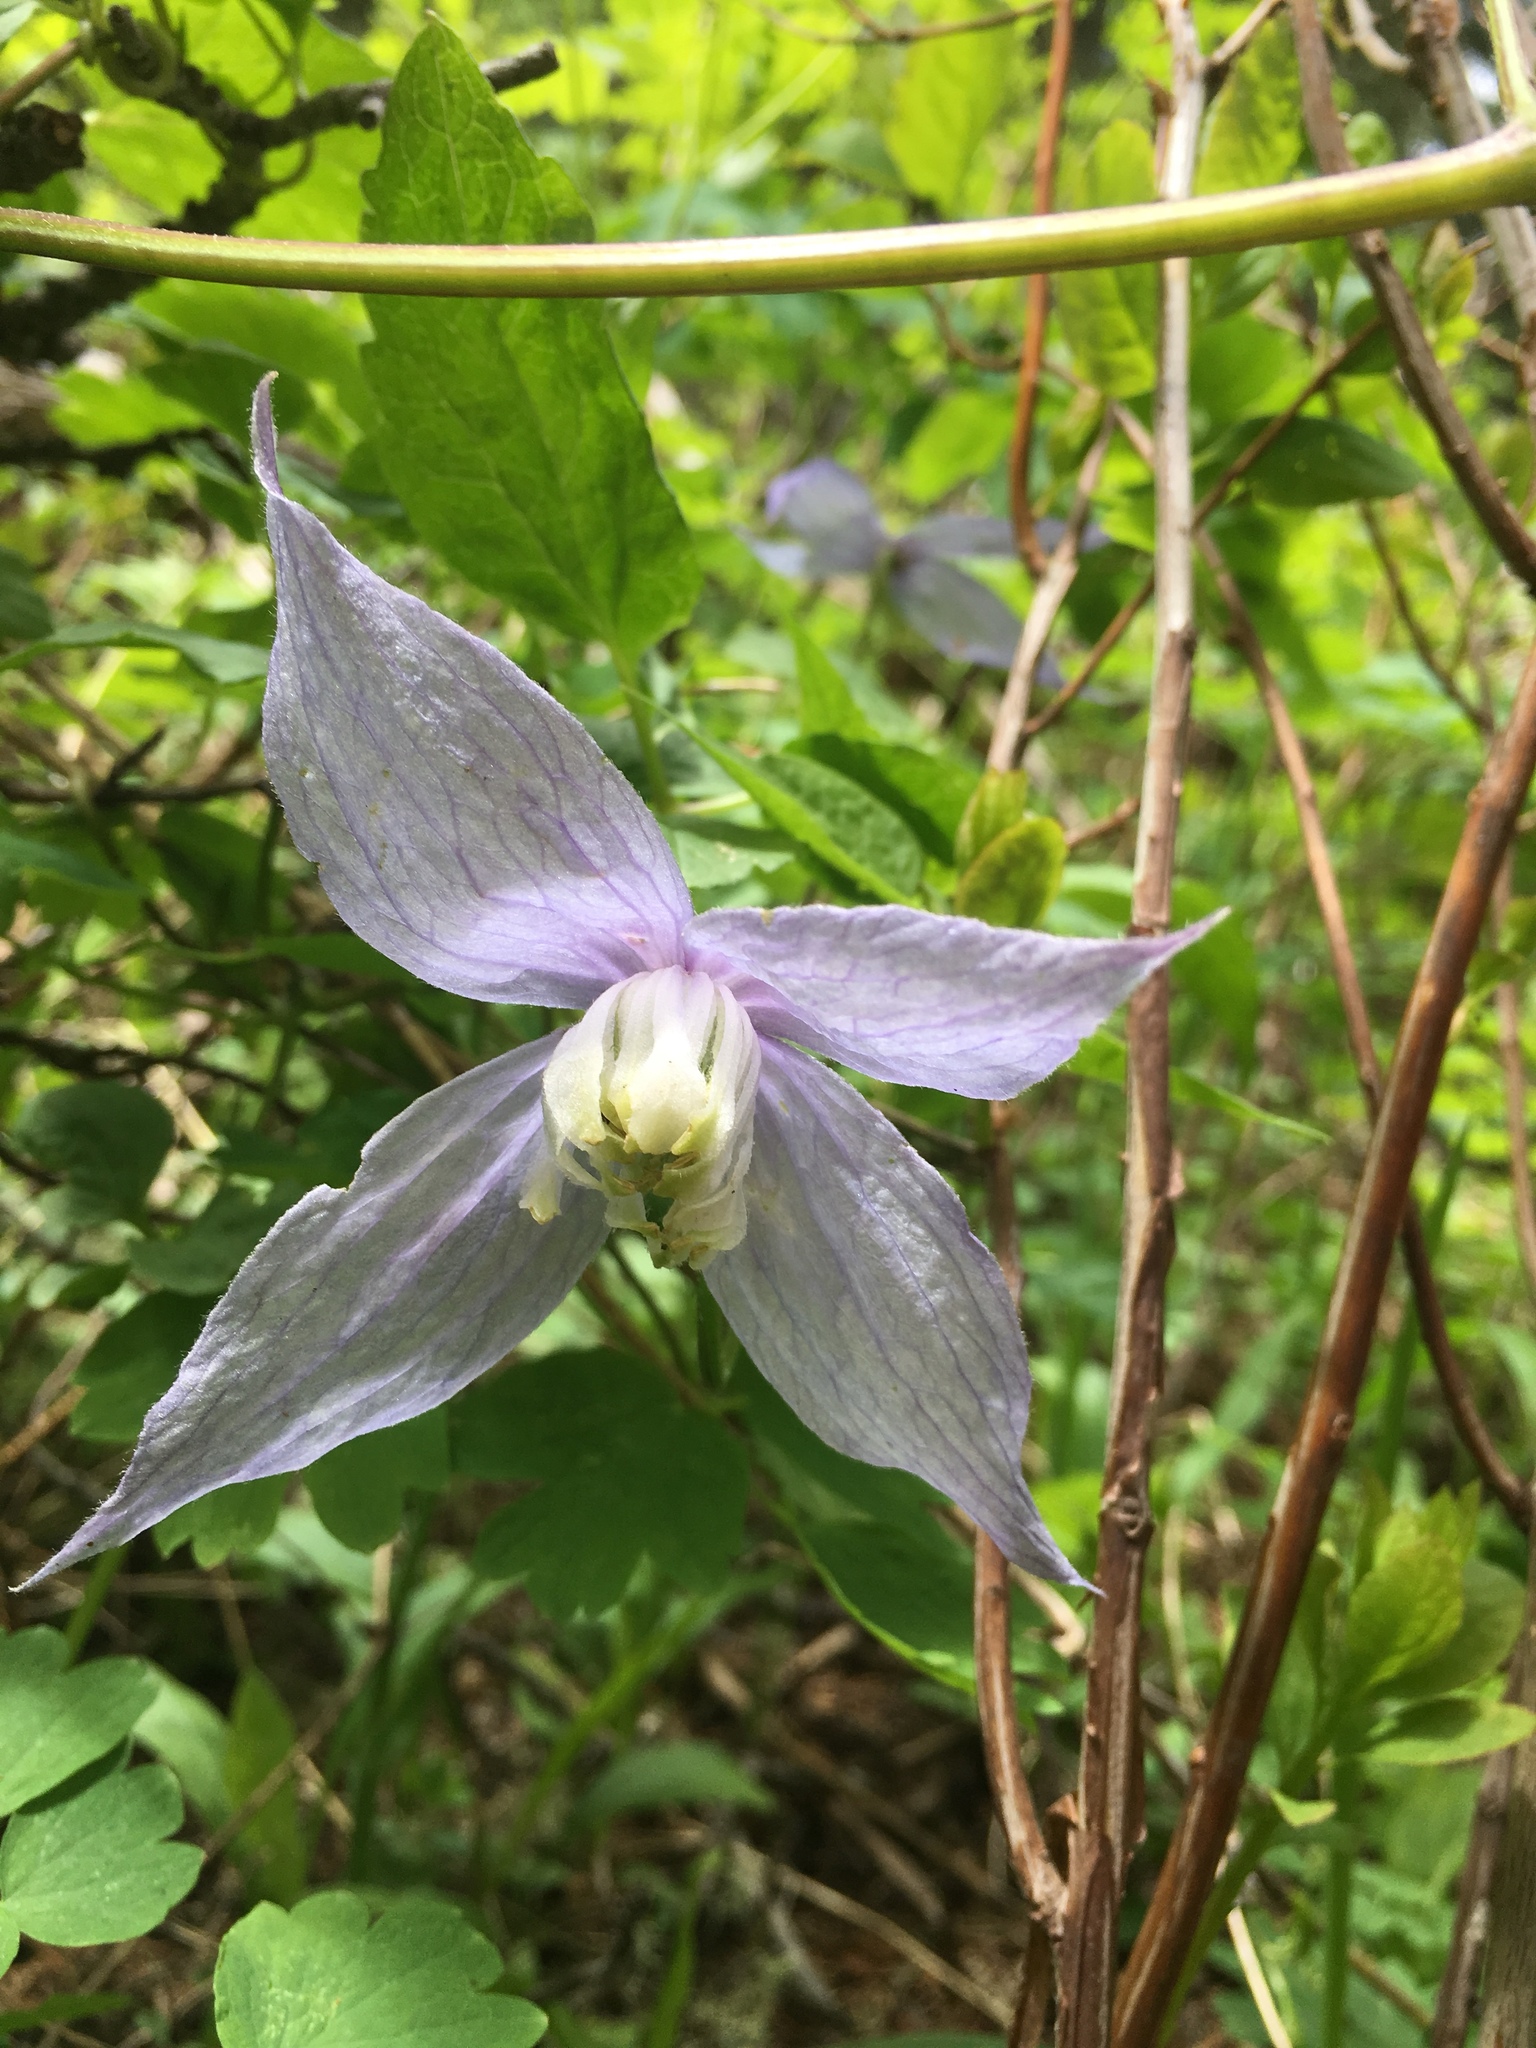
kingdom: Plantae
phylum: Tracheophyta
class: Magnoliopsida
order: Ranunculales
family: Ranunculaceae
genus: Clematis
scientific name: Clematis occidentalis
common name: Purple clematis
